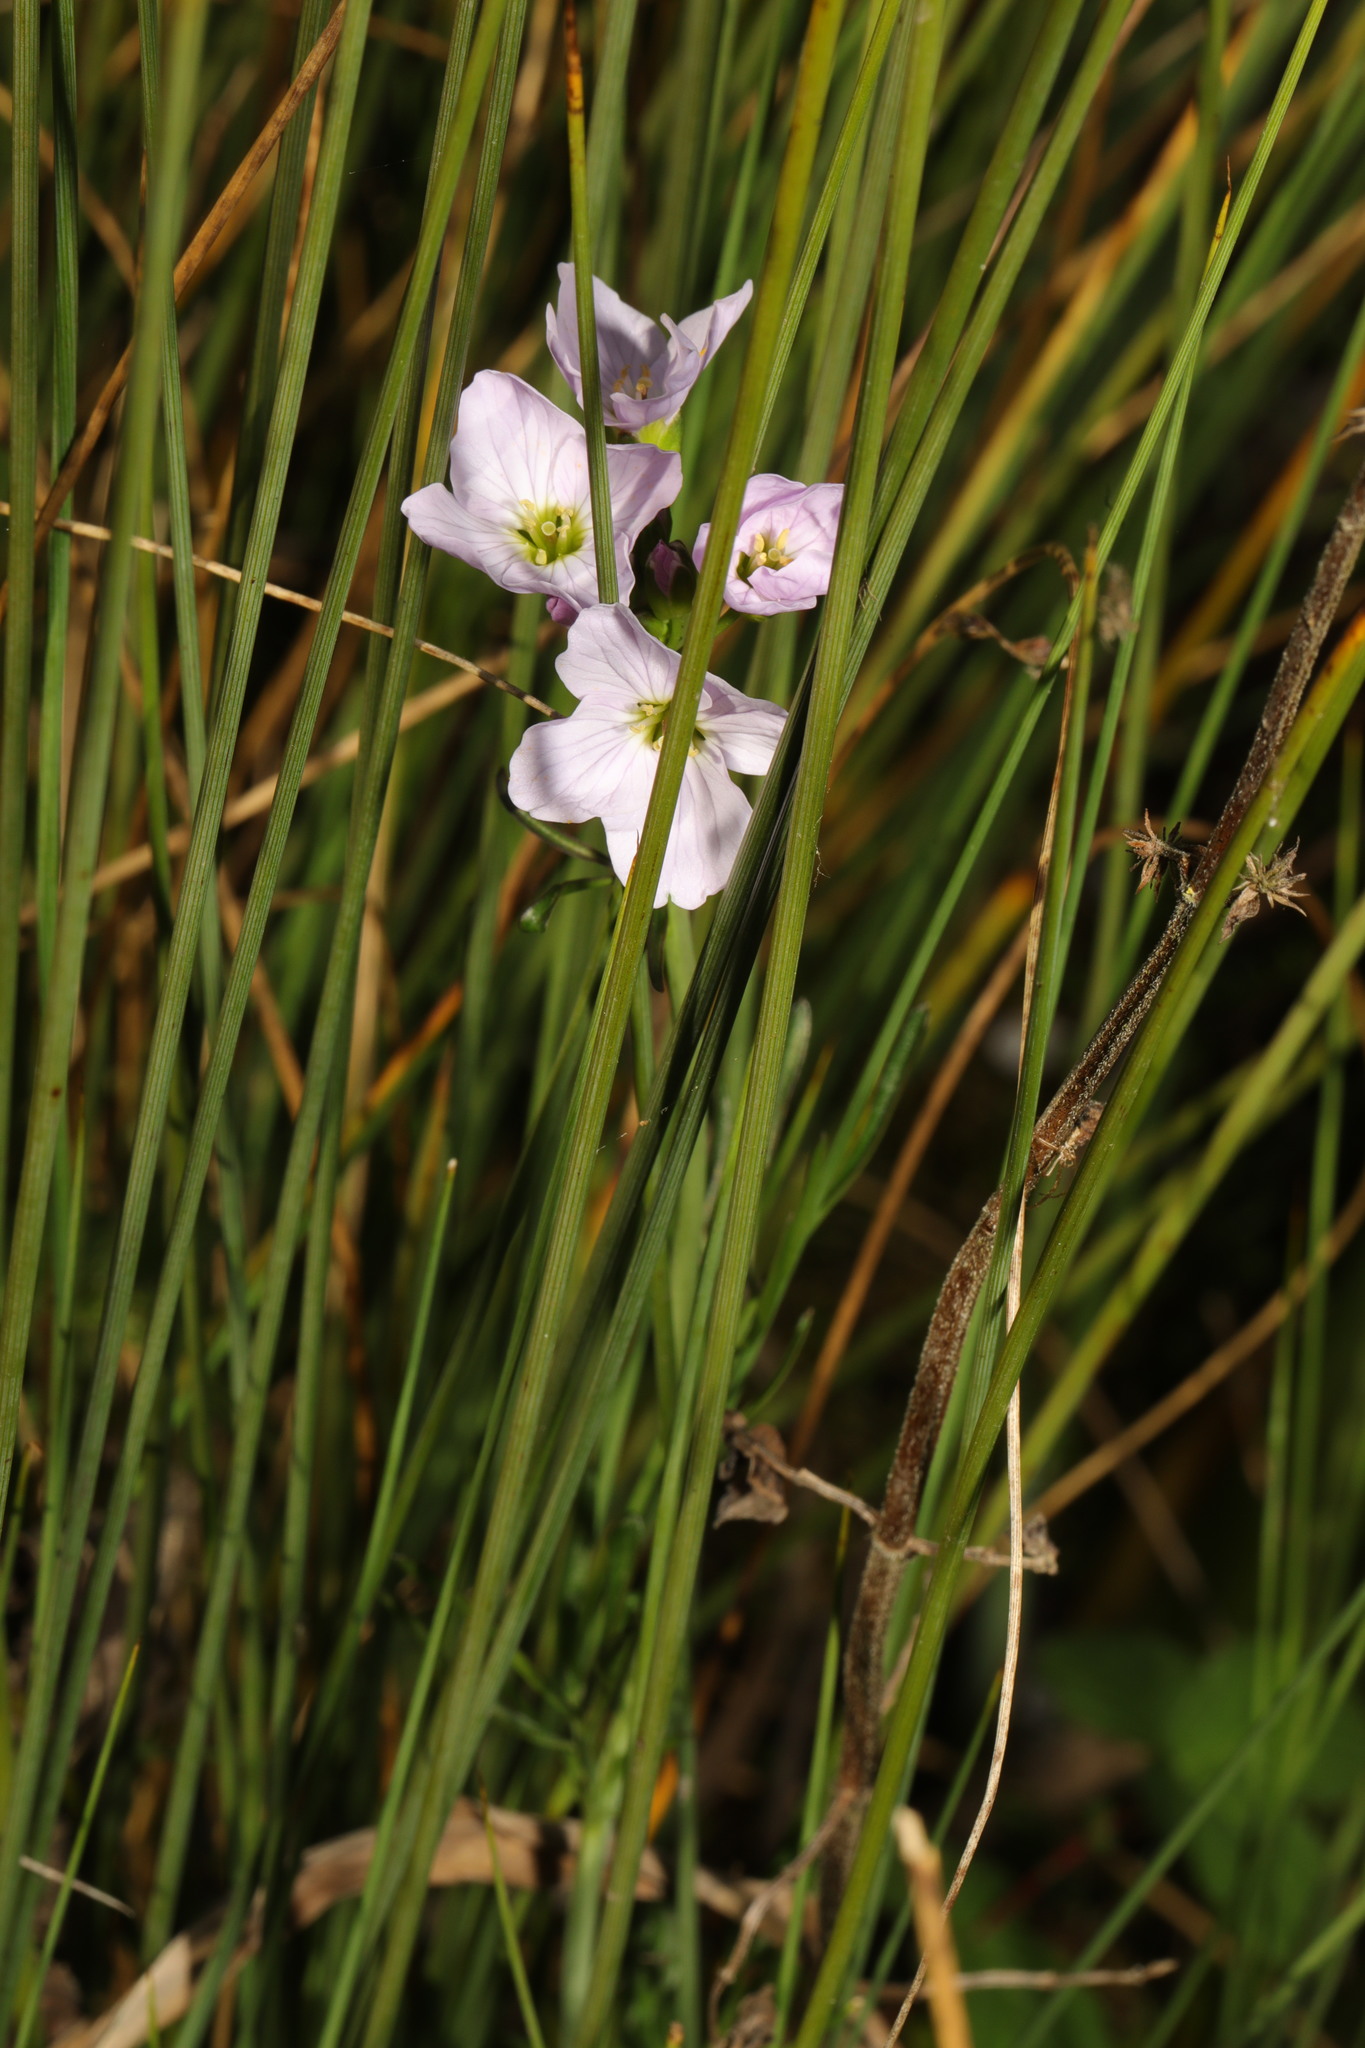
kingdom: Plantae
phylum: Tracheophyta
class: Magnoliopsida
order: Brassicales
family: Brassicaceae
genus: Cardamine
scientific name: Cardamine pratensis
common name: Cuckoo flower
